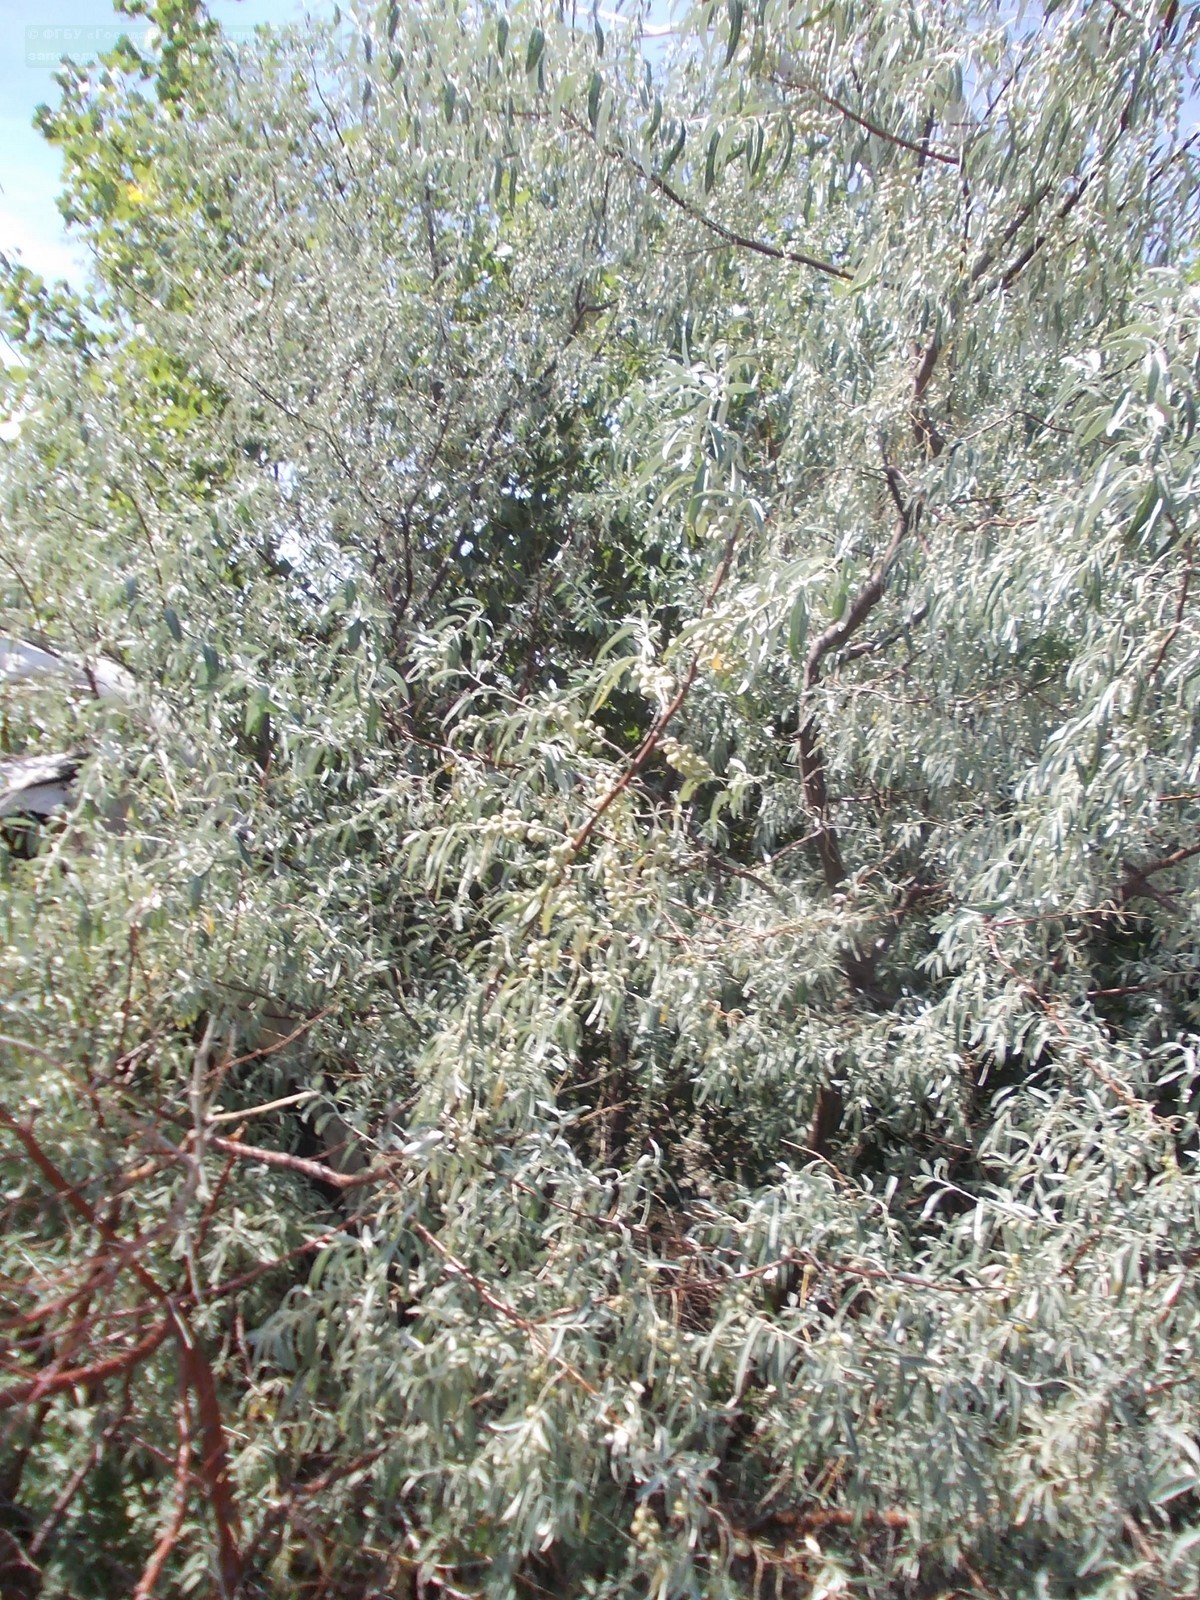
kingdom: Plantae
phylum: Tracheophyta
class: Magnoliopsida
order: Rosales
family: Elaeagnaceae
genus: Elaeagnus
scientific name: Elaeagnus angustifolia
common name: Russian olive
